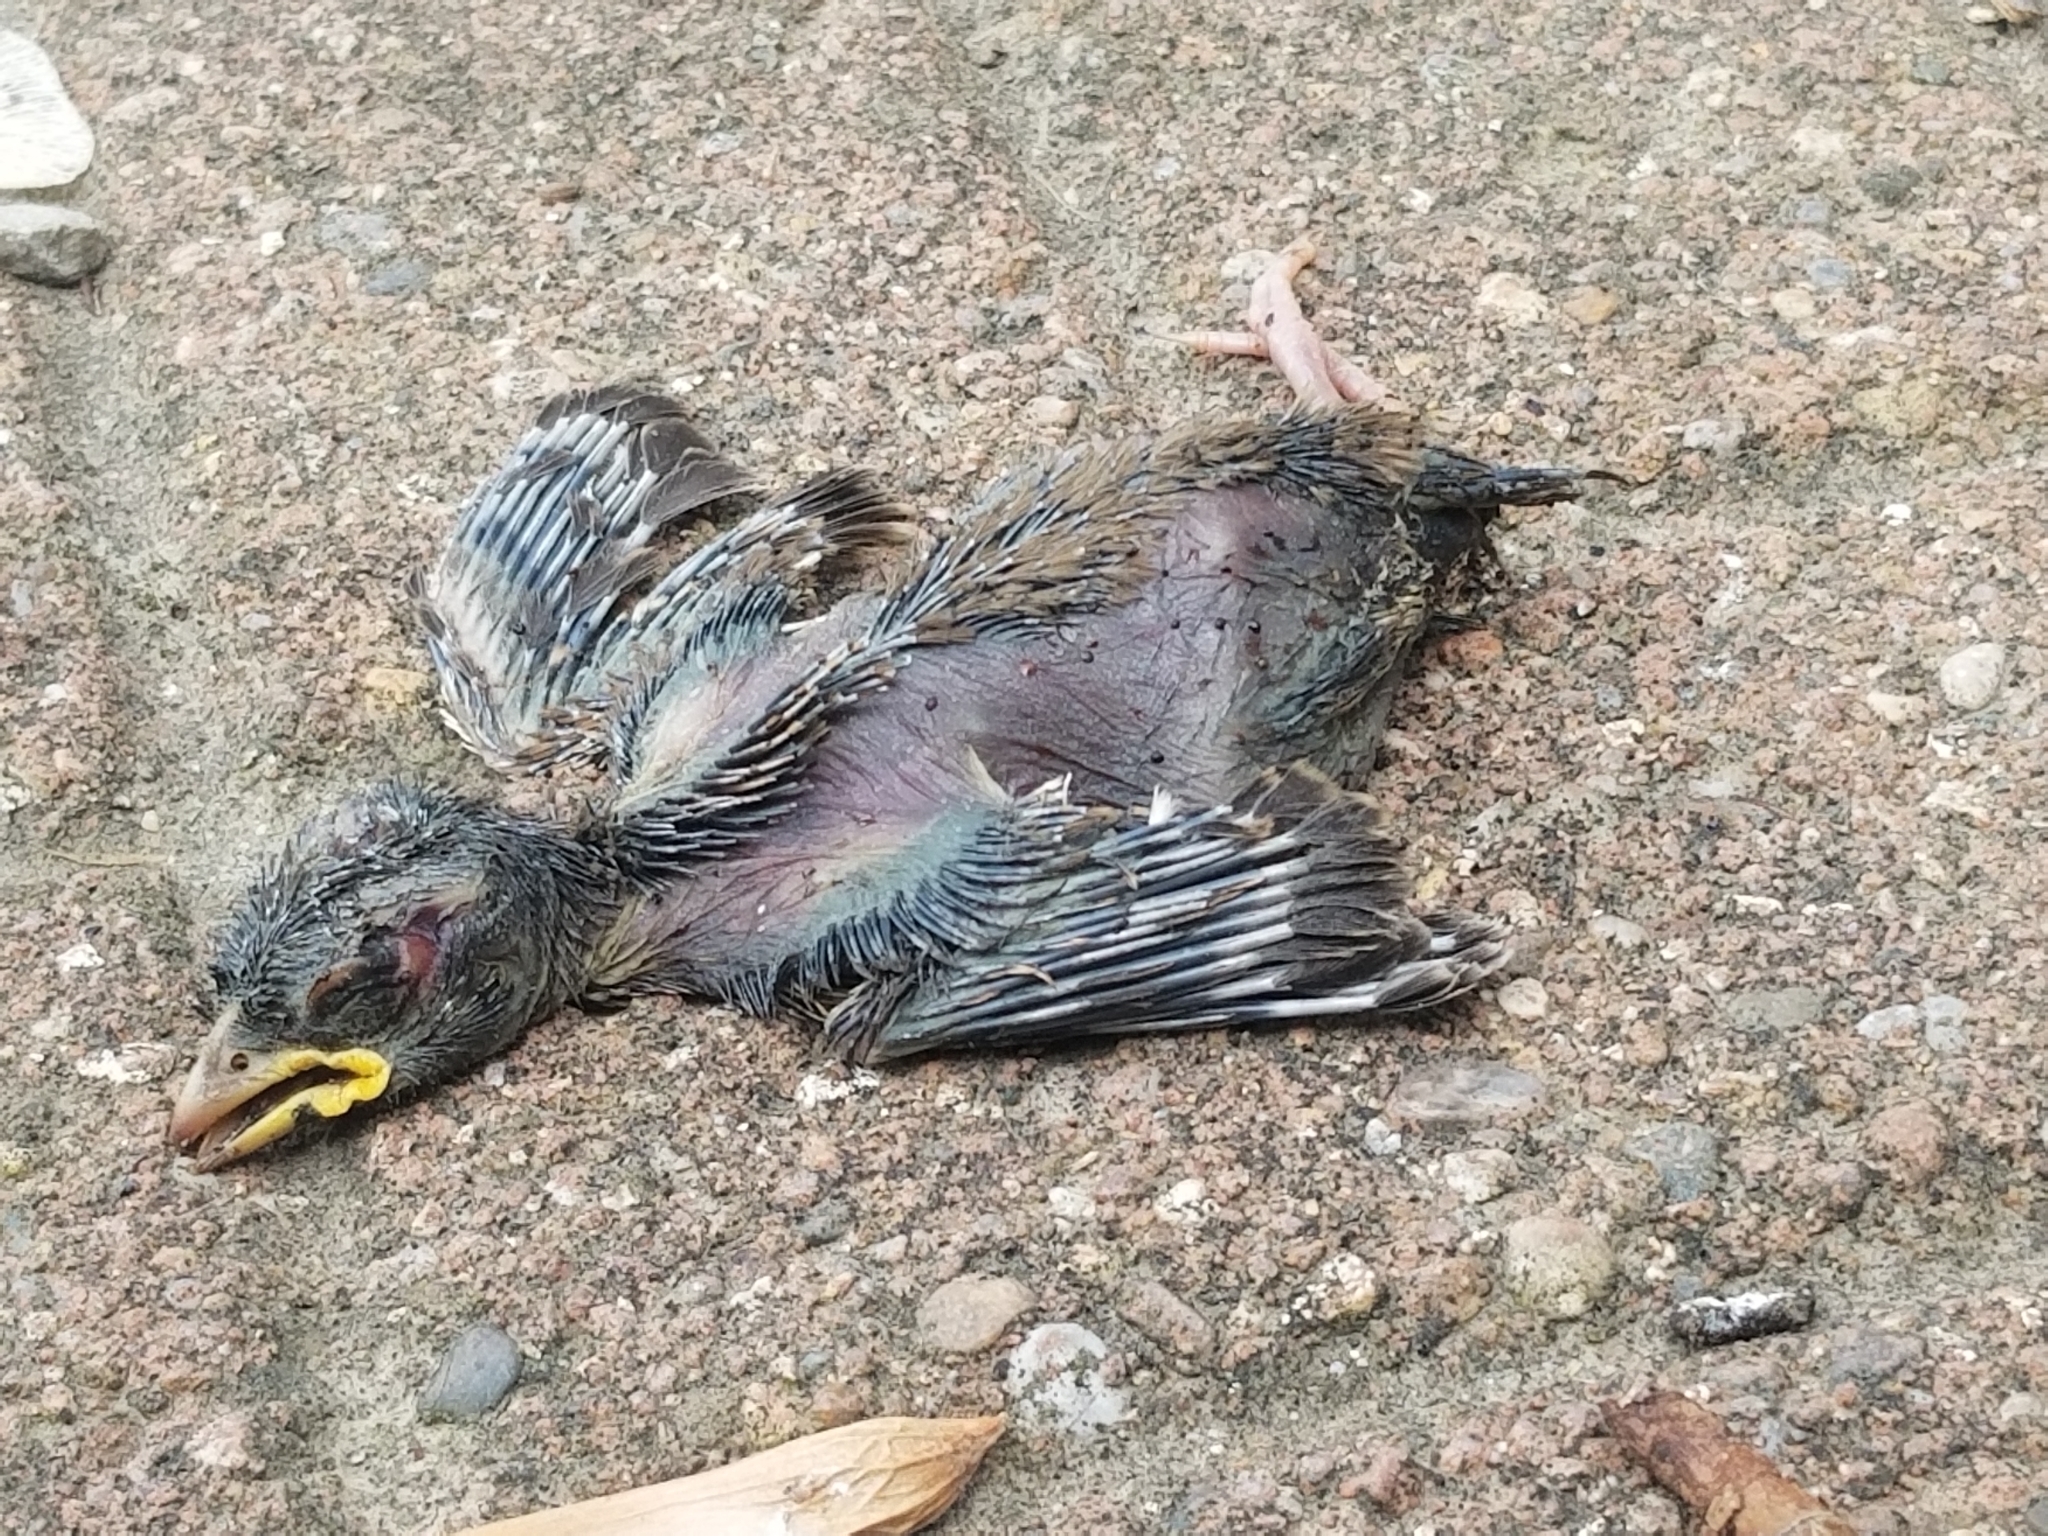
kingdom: Animalia
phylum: Chordata
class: Aves
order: Passeriformes
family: Passeridae
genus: Passer
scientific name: Passer domesticus
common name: House sparrow
